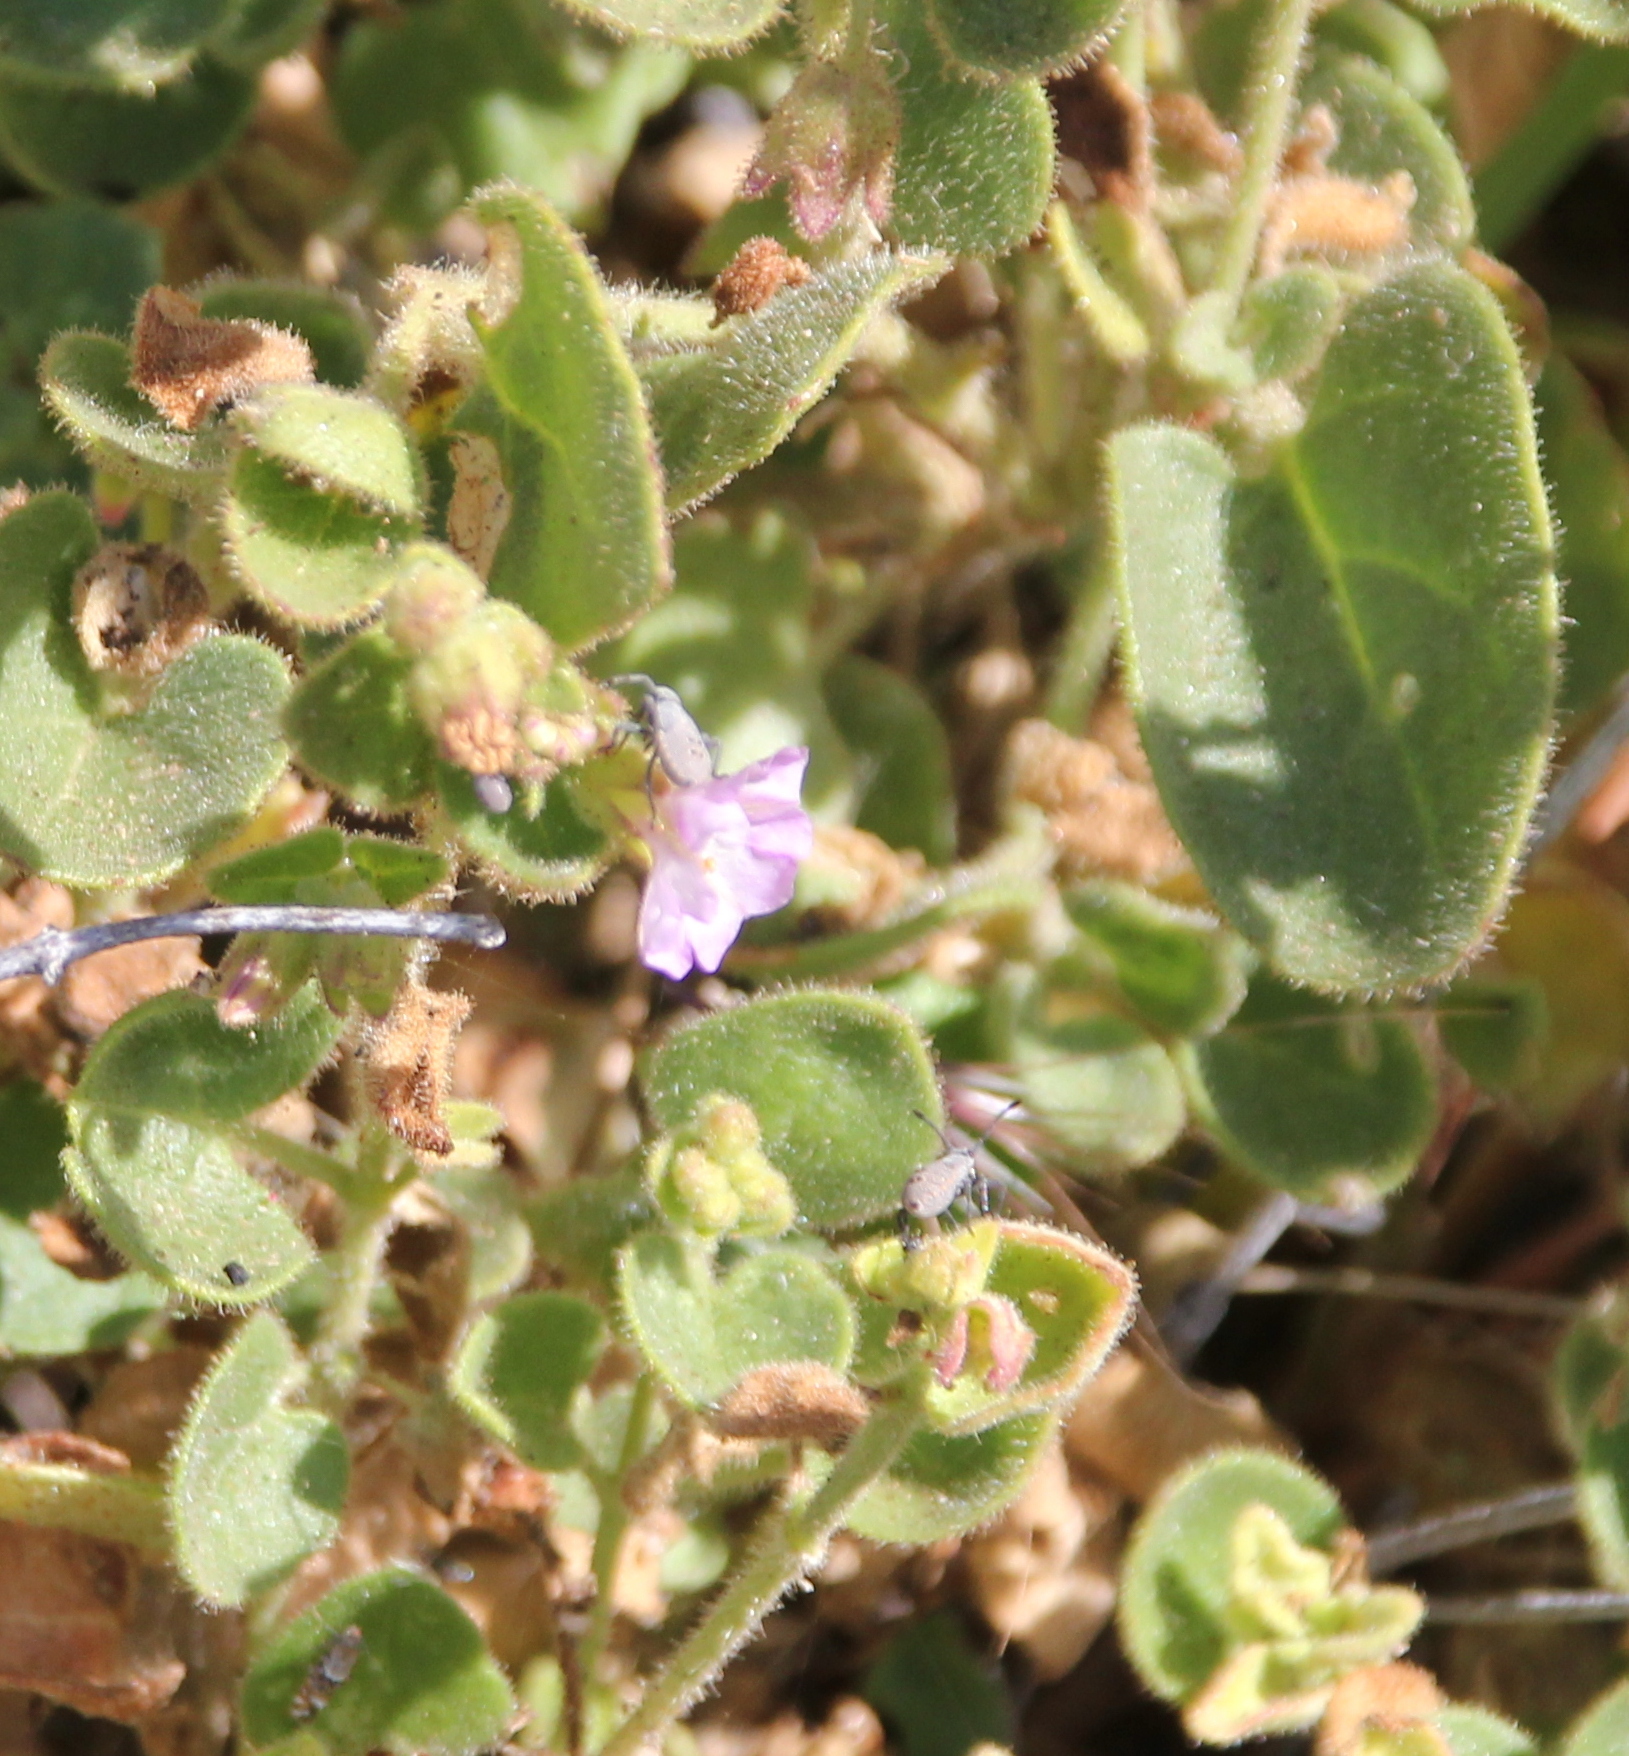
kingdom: Plantae
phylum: Tracheophyta
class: Magnoliopsida
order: Caryophyllales
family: Nyctaginaceae
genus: Mirabilis
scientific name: Mirabilis laevis
